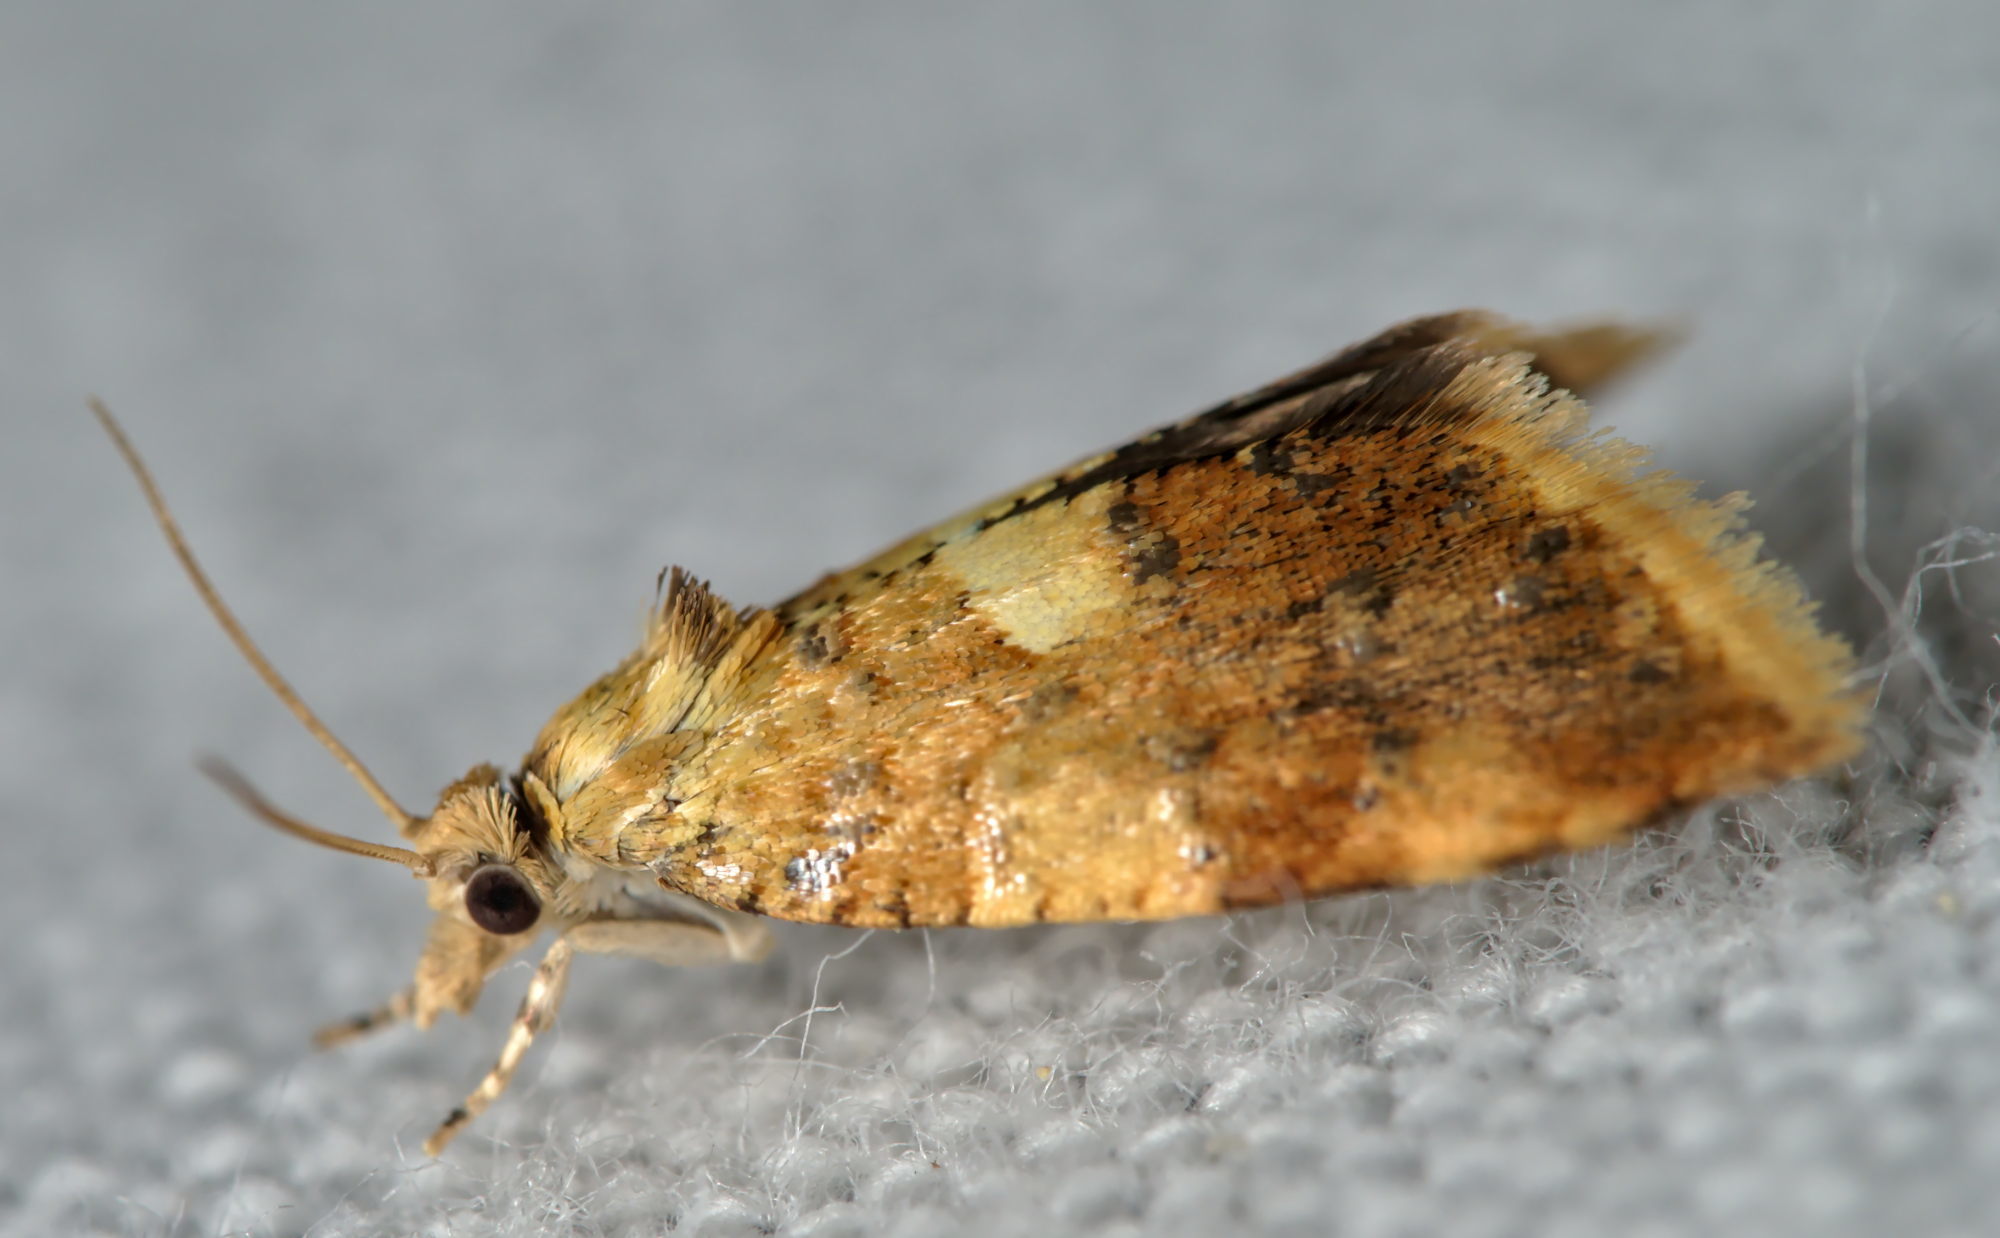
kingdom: Animalia
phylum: Arthropoda
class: Insecta
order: Lepidoptera
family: Tortricidae
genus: Pseudargyrotoza
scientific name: Pseudargyrotoza conwagana
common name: Yellow-spot twist
